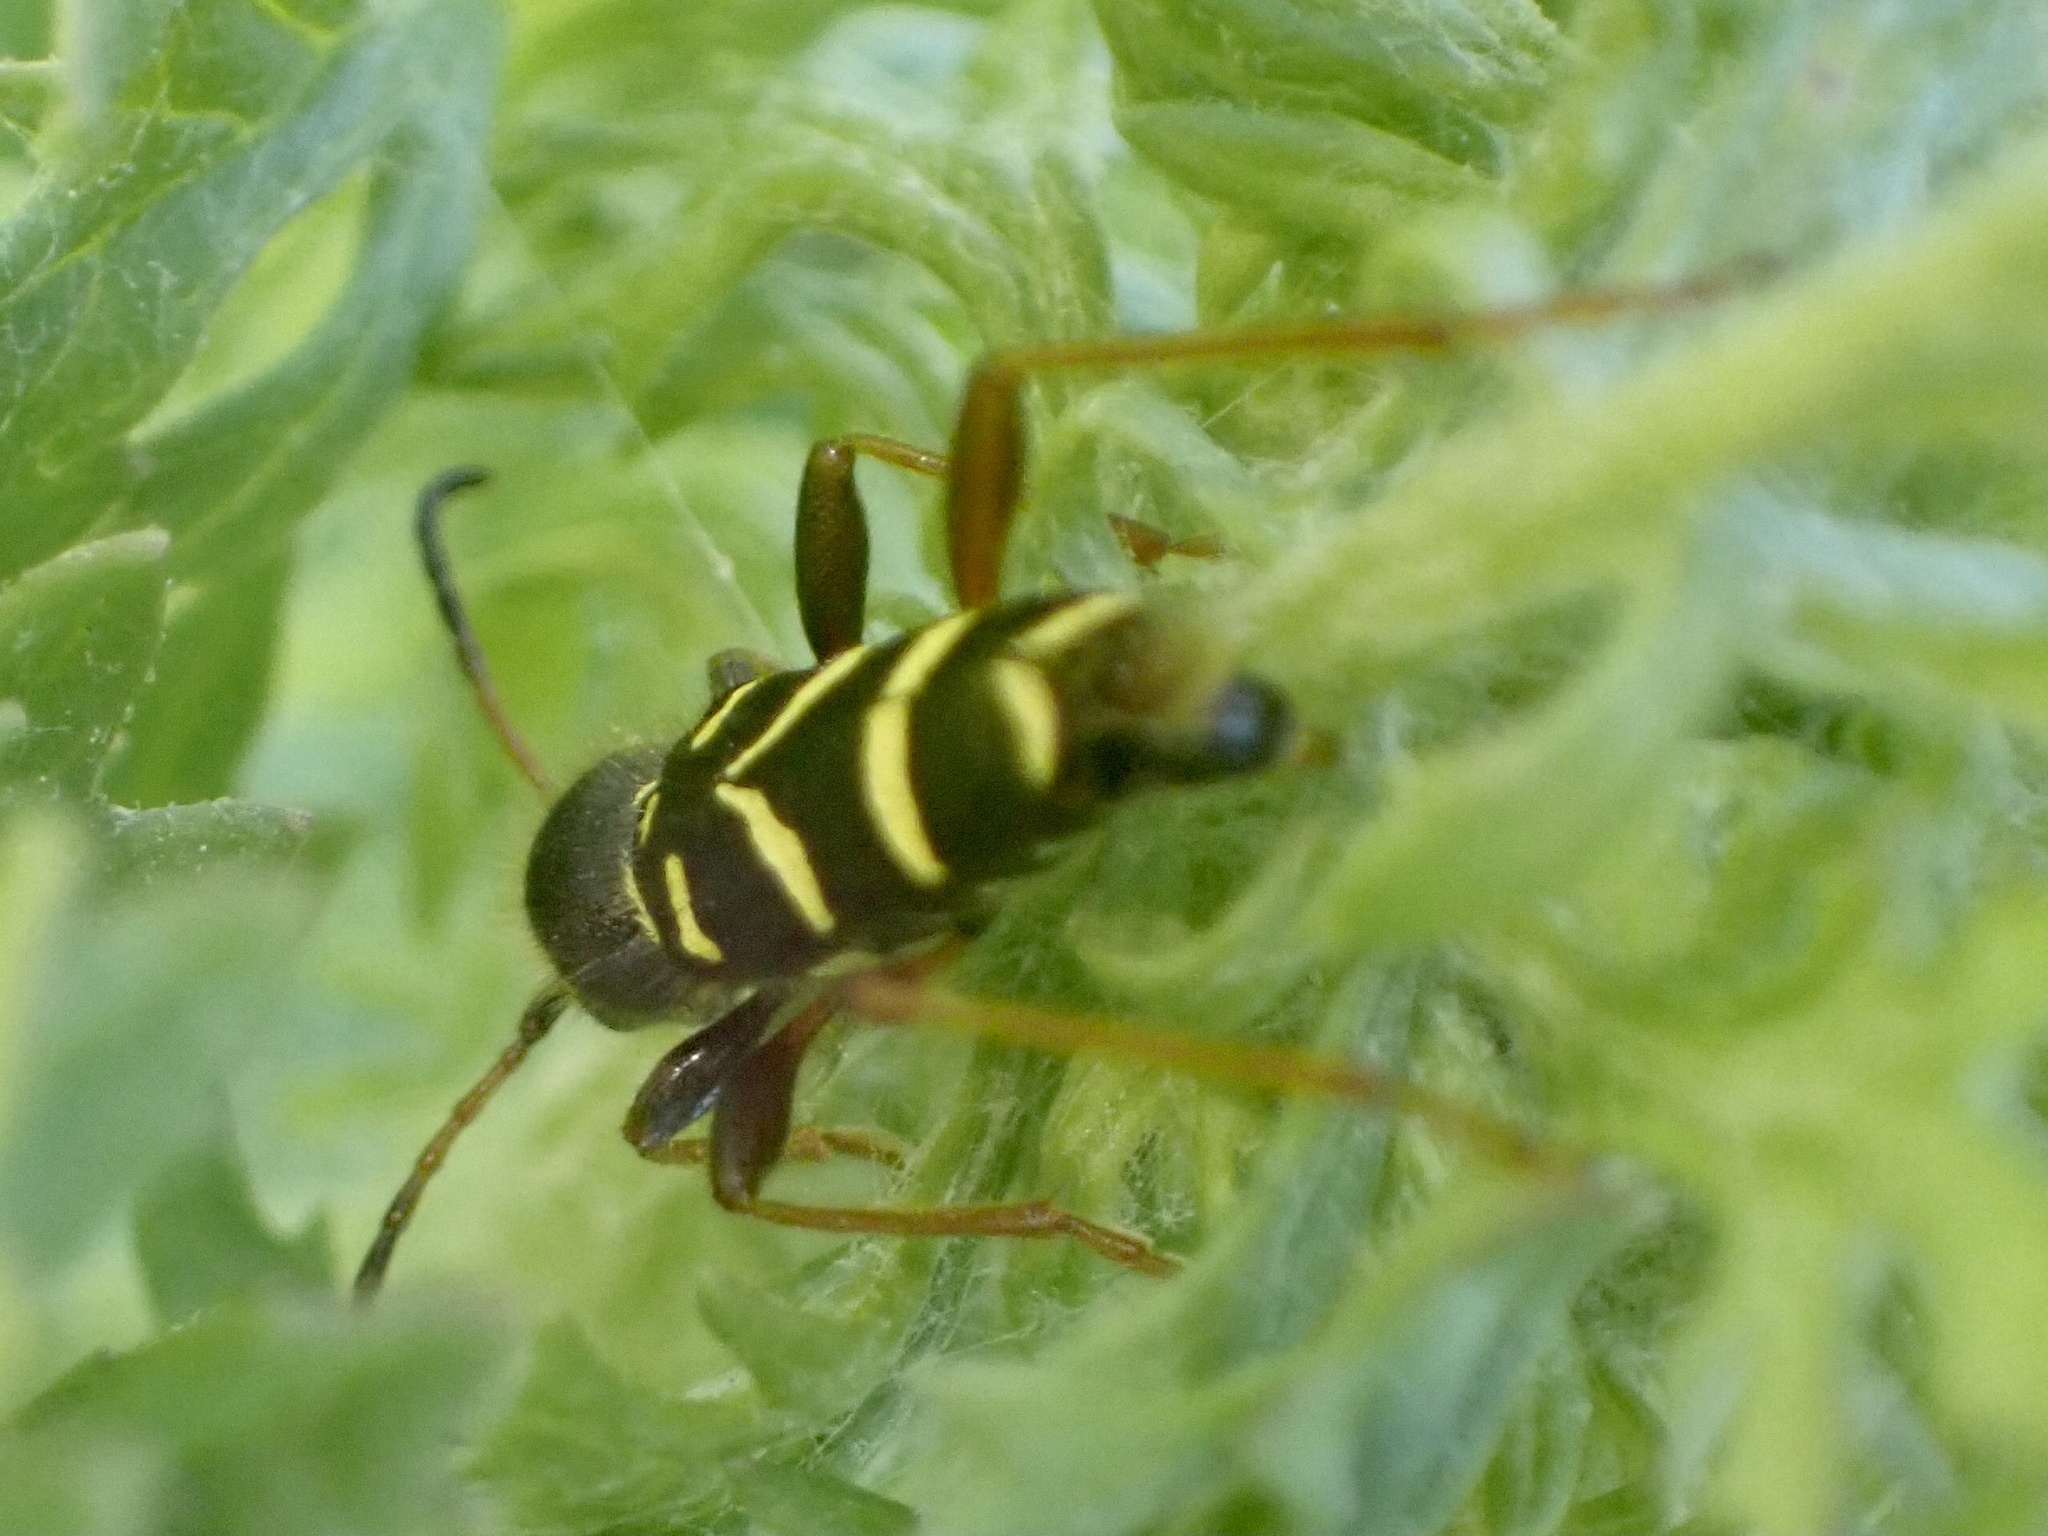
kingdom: Animalia
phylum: Arthropoda
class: Insecta
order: Coleoptera
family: Cerambycidae
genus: Clytus
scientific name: Clytus arietis
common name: Wasp beetle
